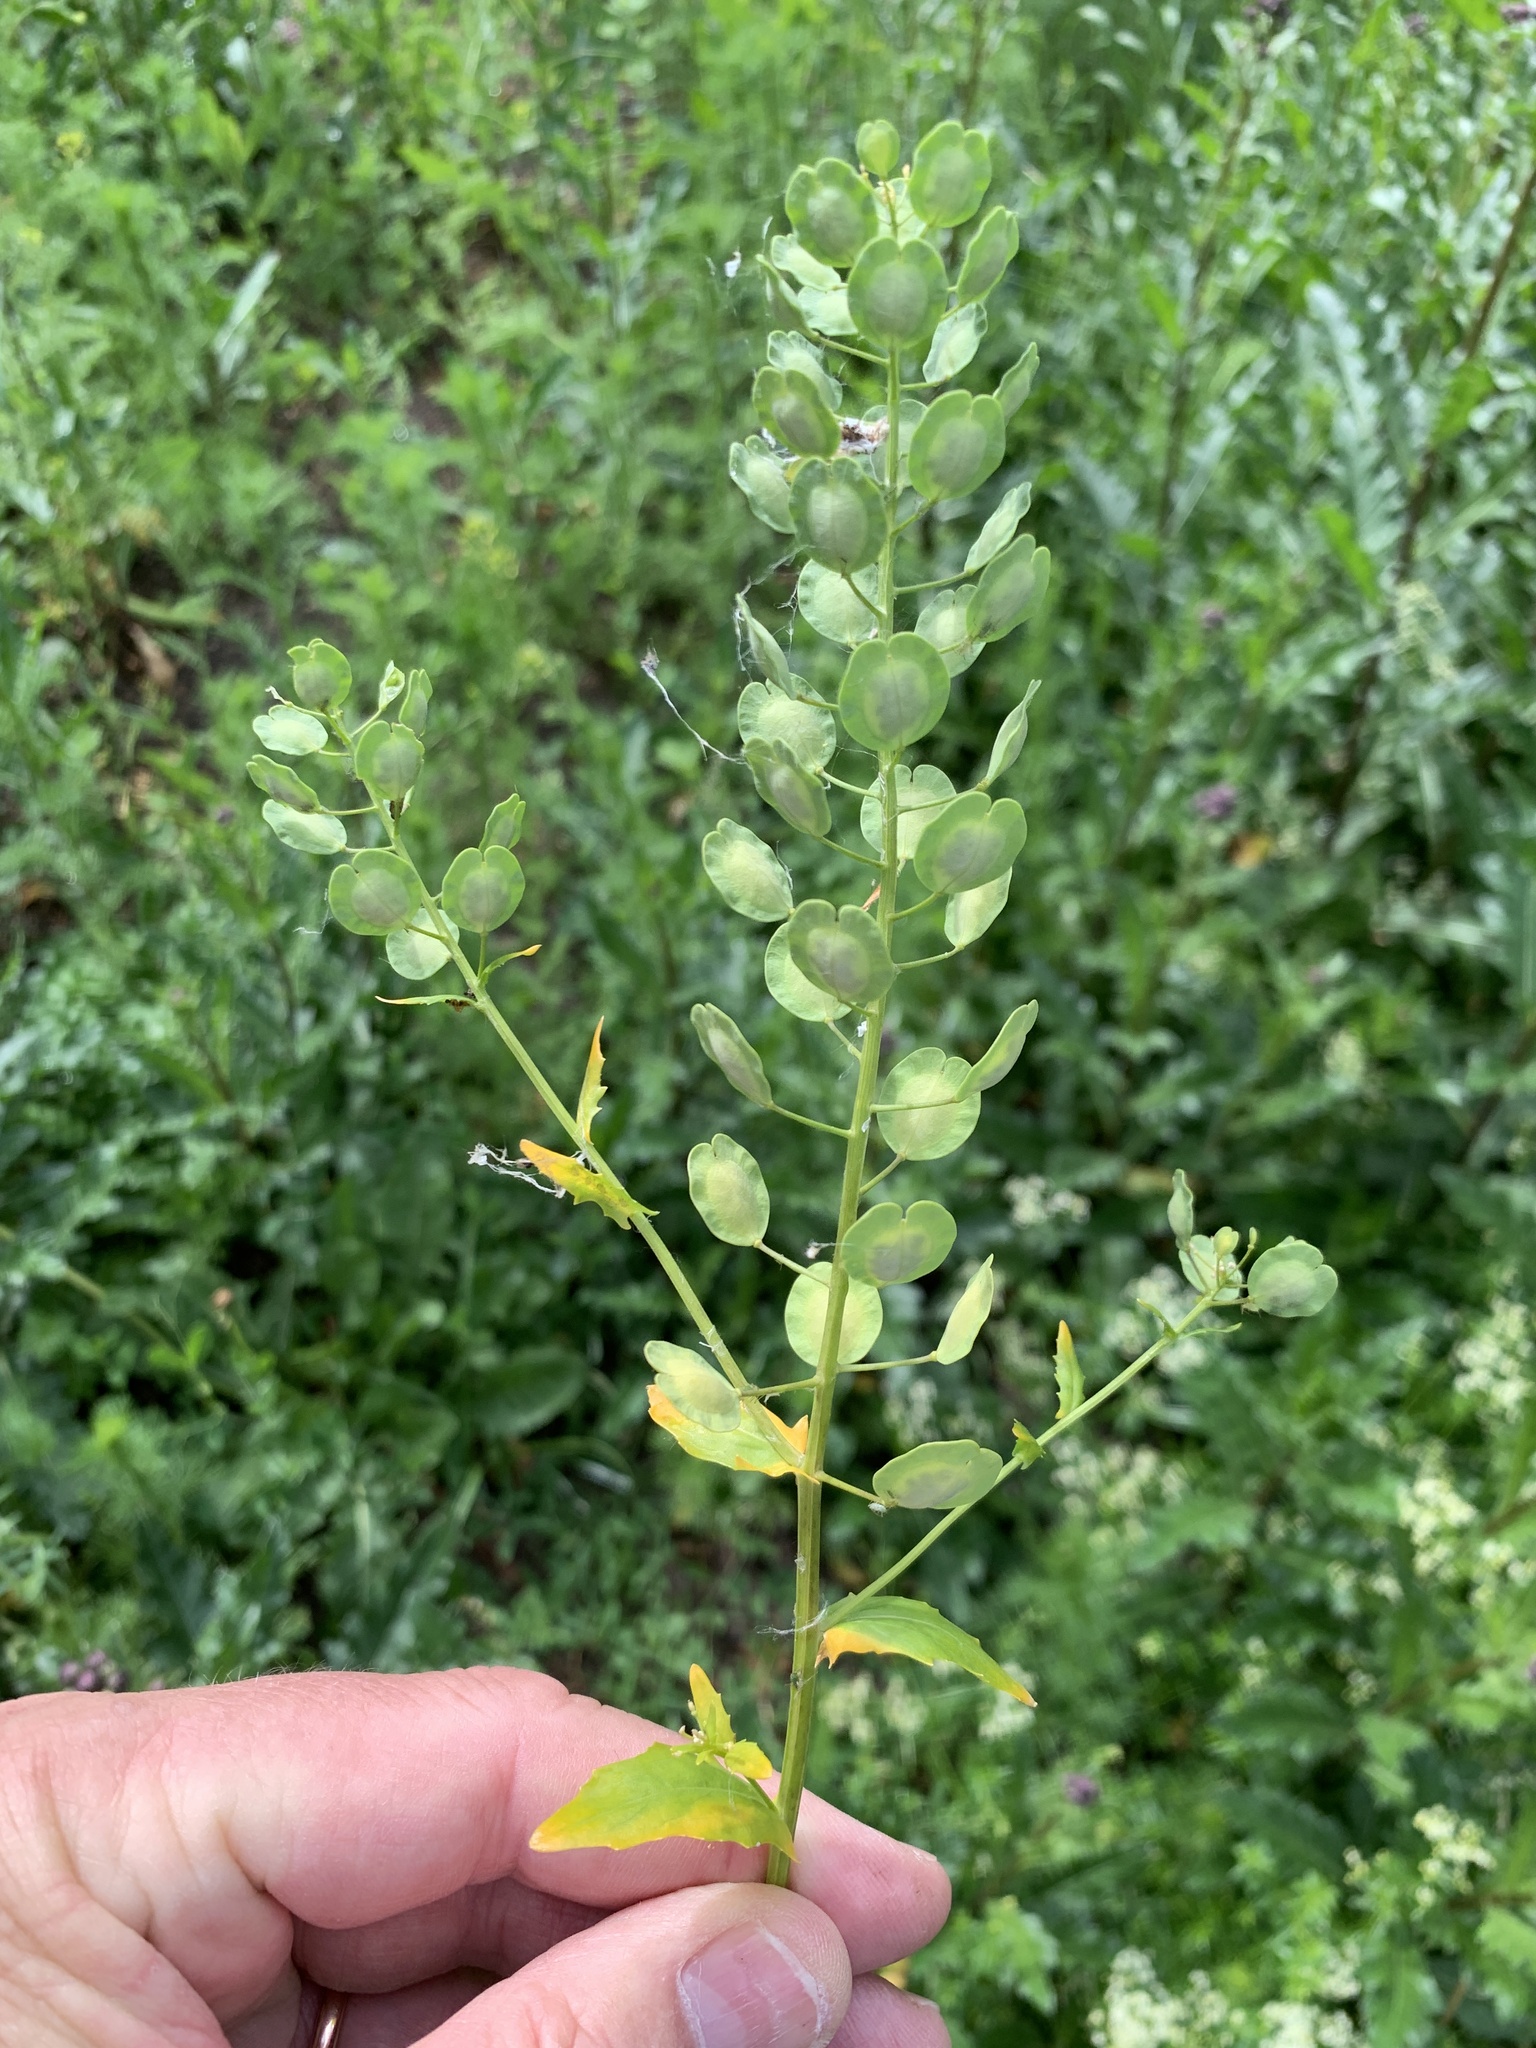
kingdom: Plantae
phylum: Tracheophyta
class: Magnoliopsida
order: Brassicales
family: Brassicaceae
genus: Thlaspi
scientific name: Thlaspi arvense
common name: Field pennycress
